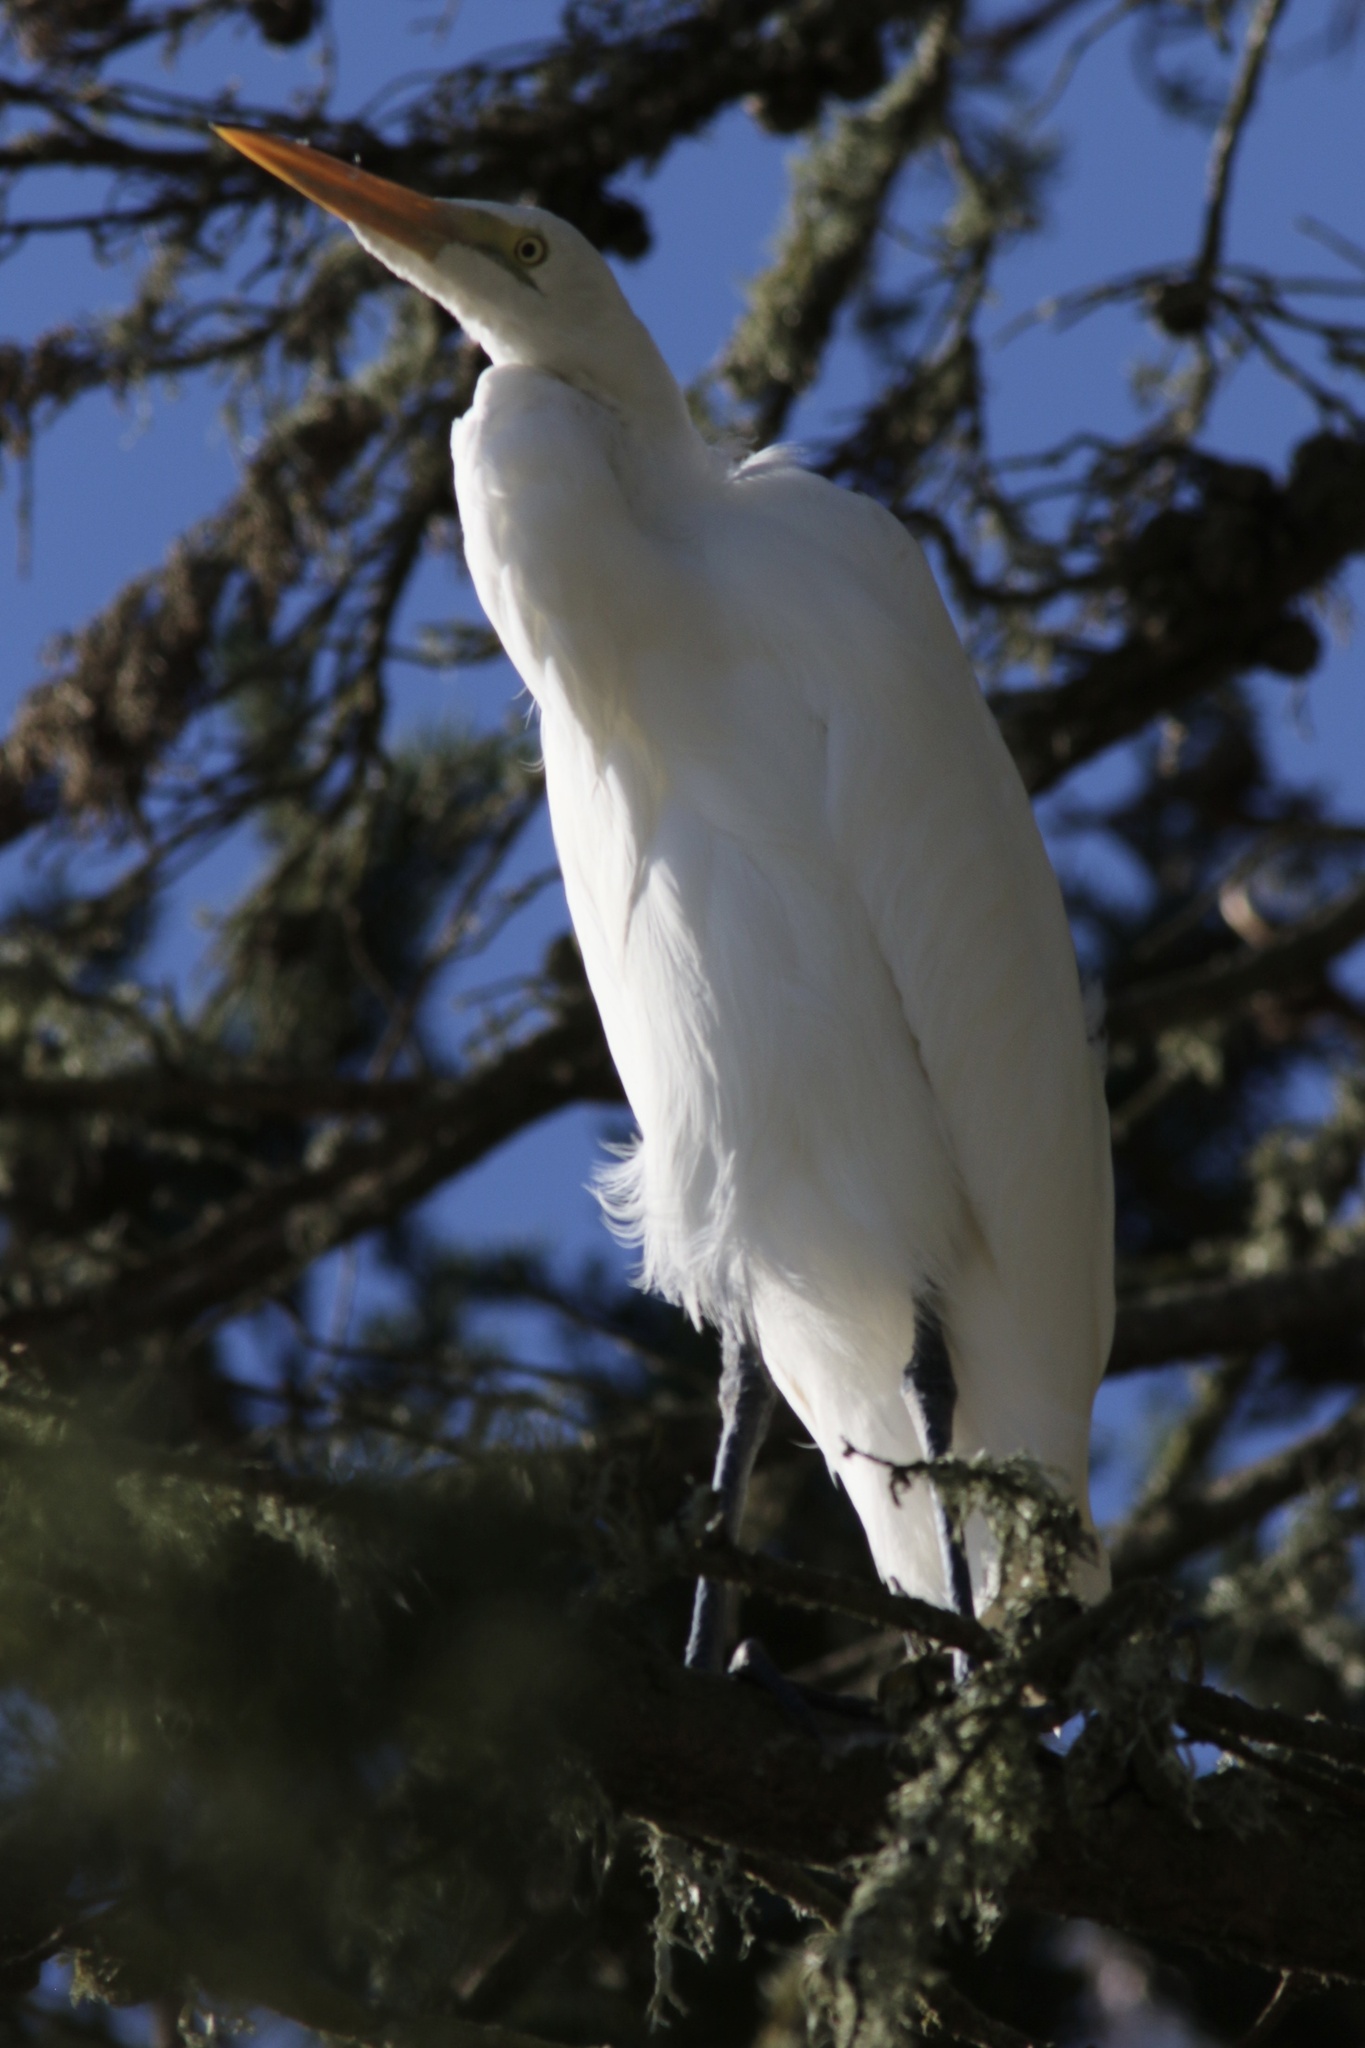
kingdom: Animalia
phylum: Chordata
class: Aves
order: Pelecaniformes
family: Ardeidae
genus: Ardea
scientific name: Ardea alba
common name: Great egret
